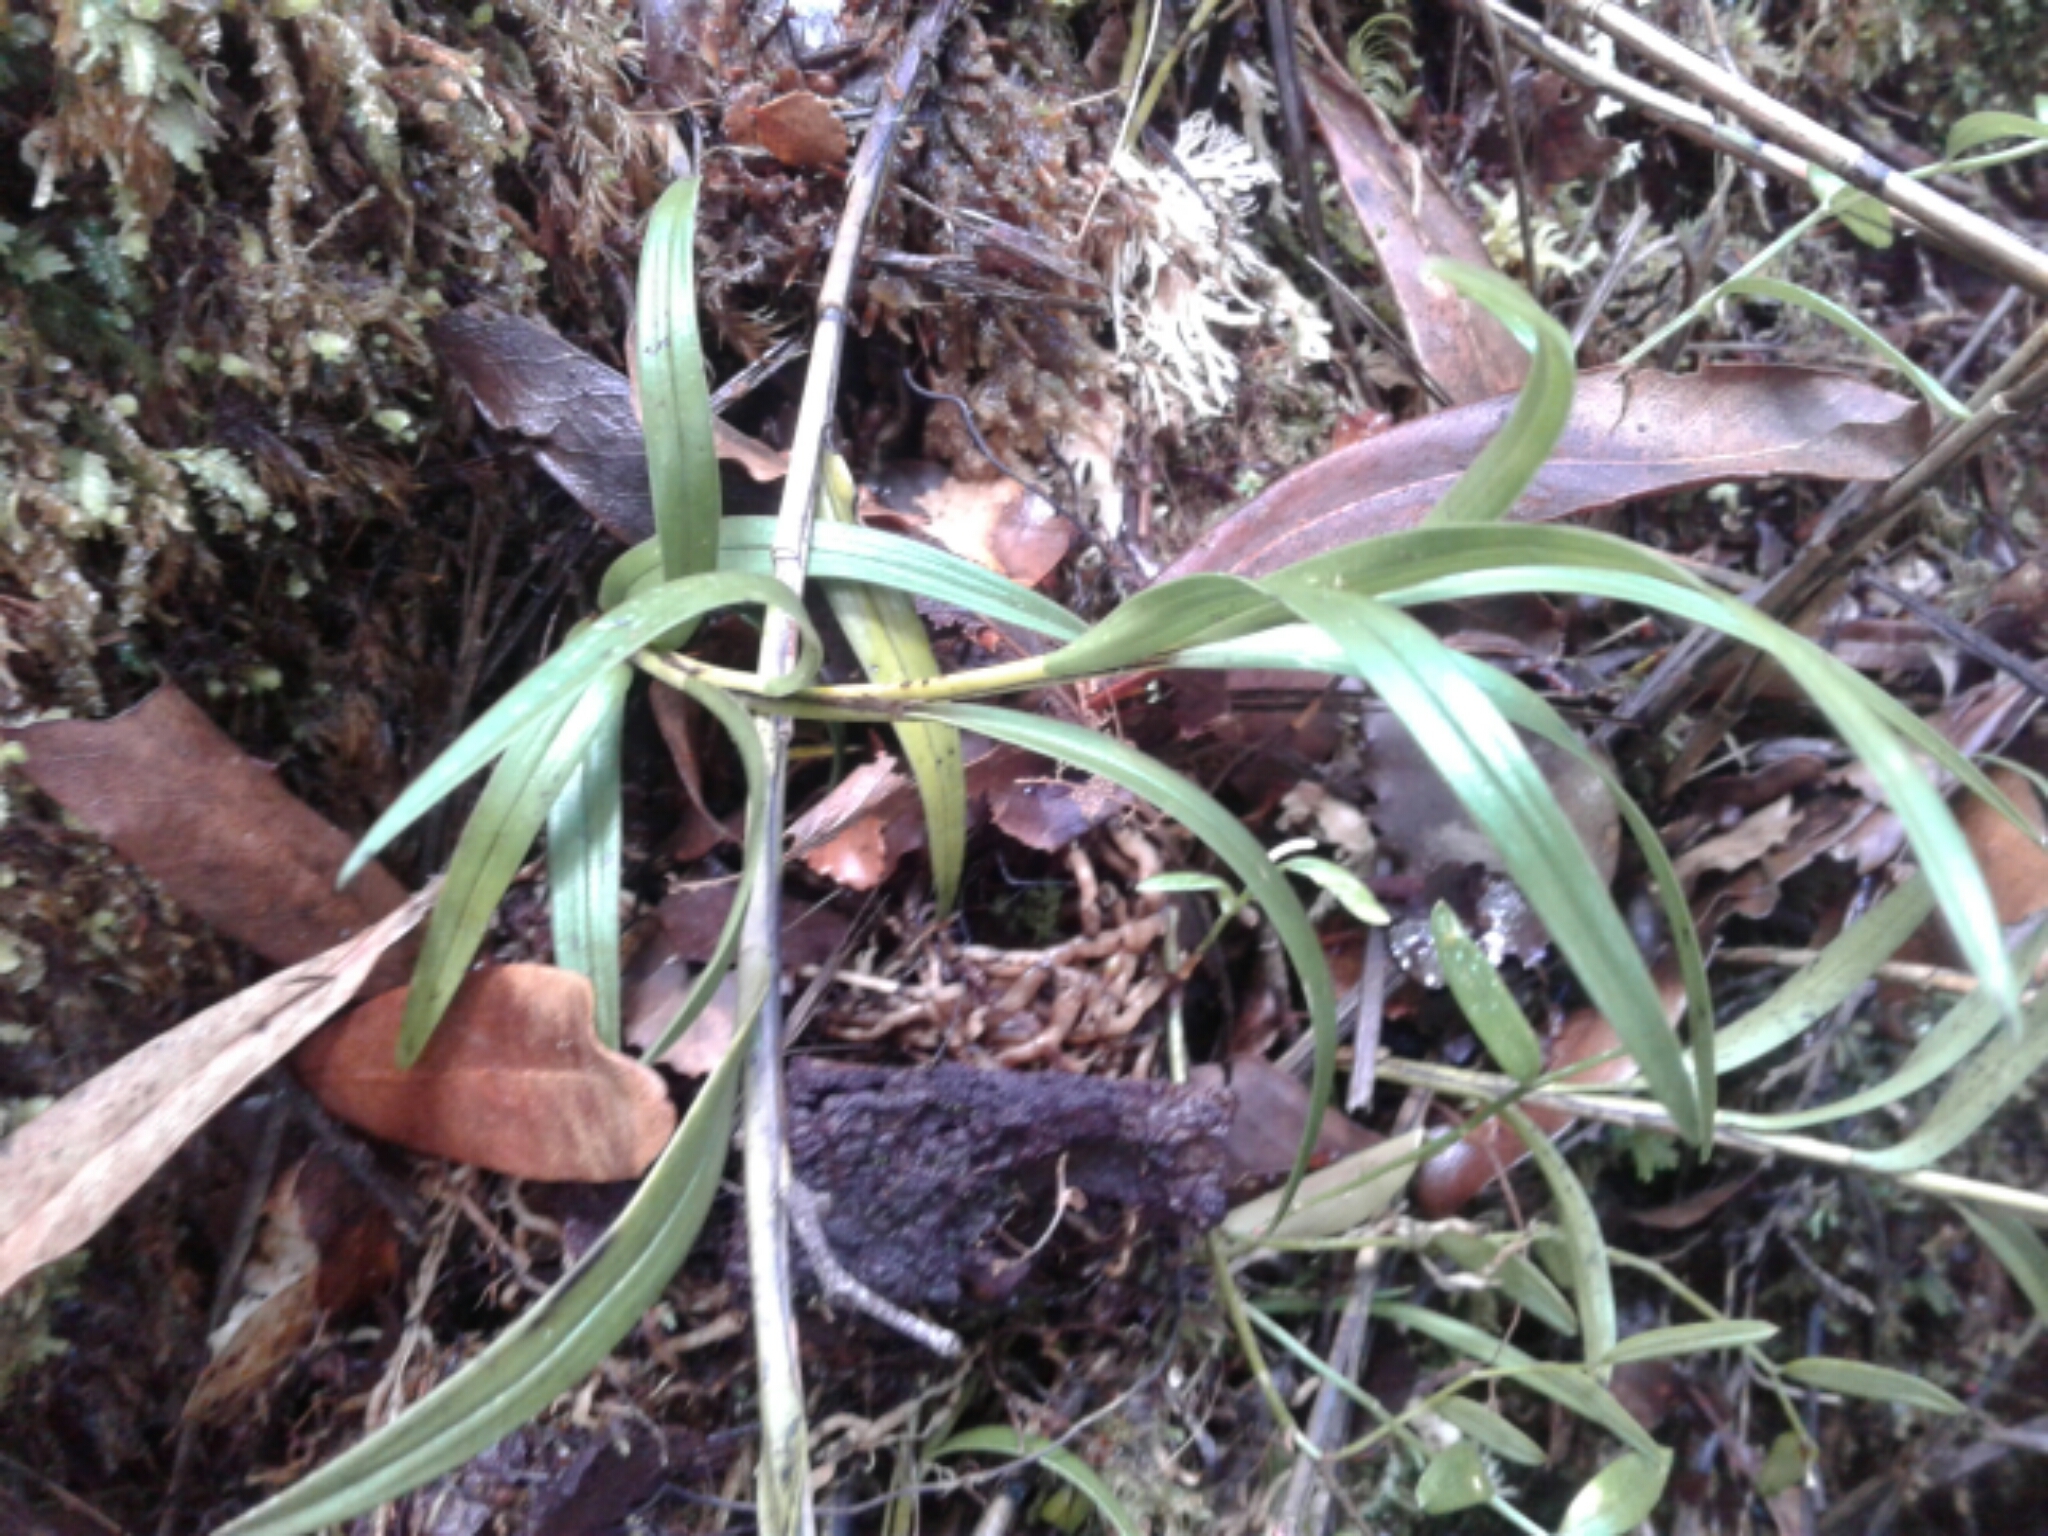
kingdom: Plantae
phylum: Tracheophyta
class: Liliopsida
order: Asparagales
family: Orchidaceae
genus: Earina
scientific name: Earina mucronata
